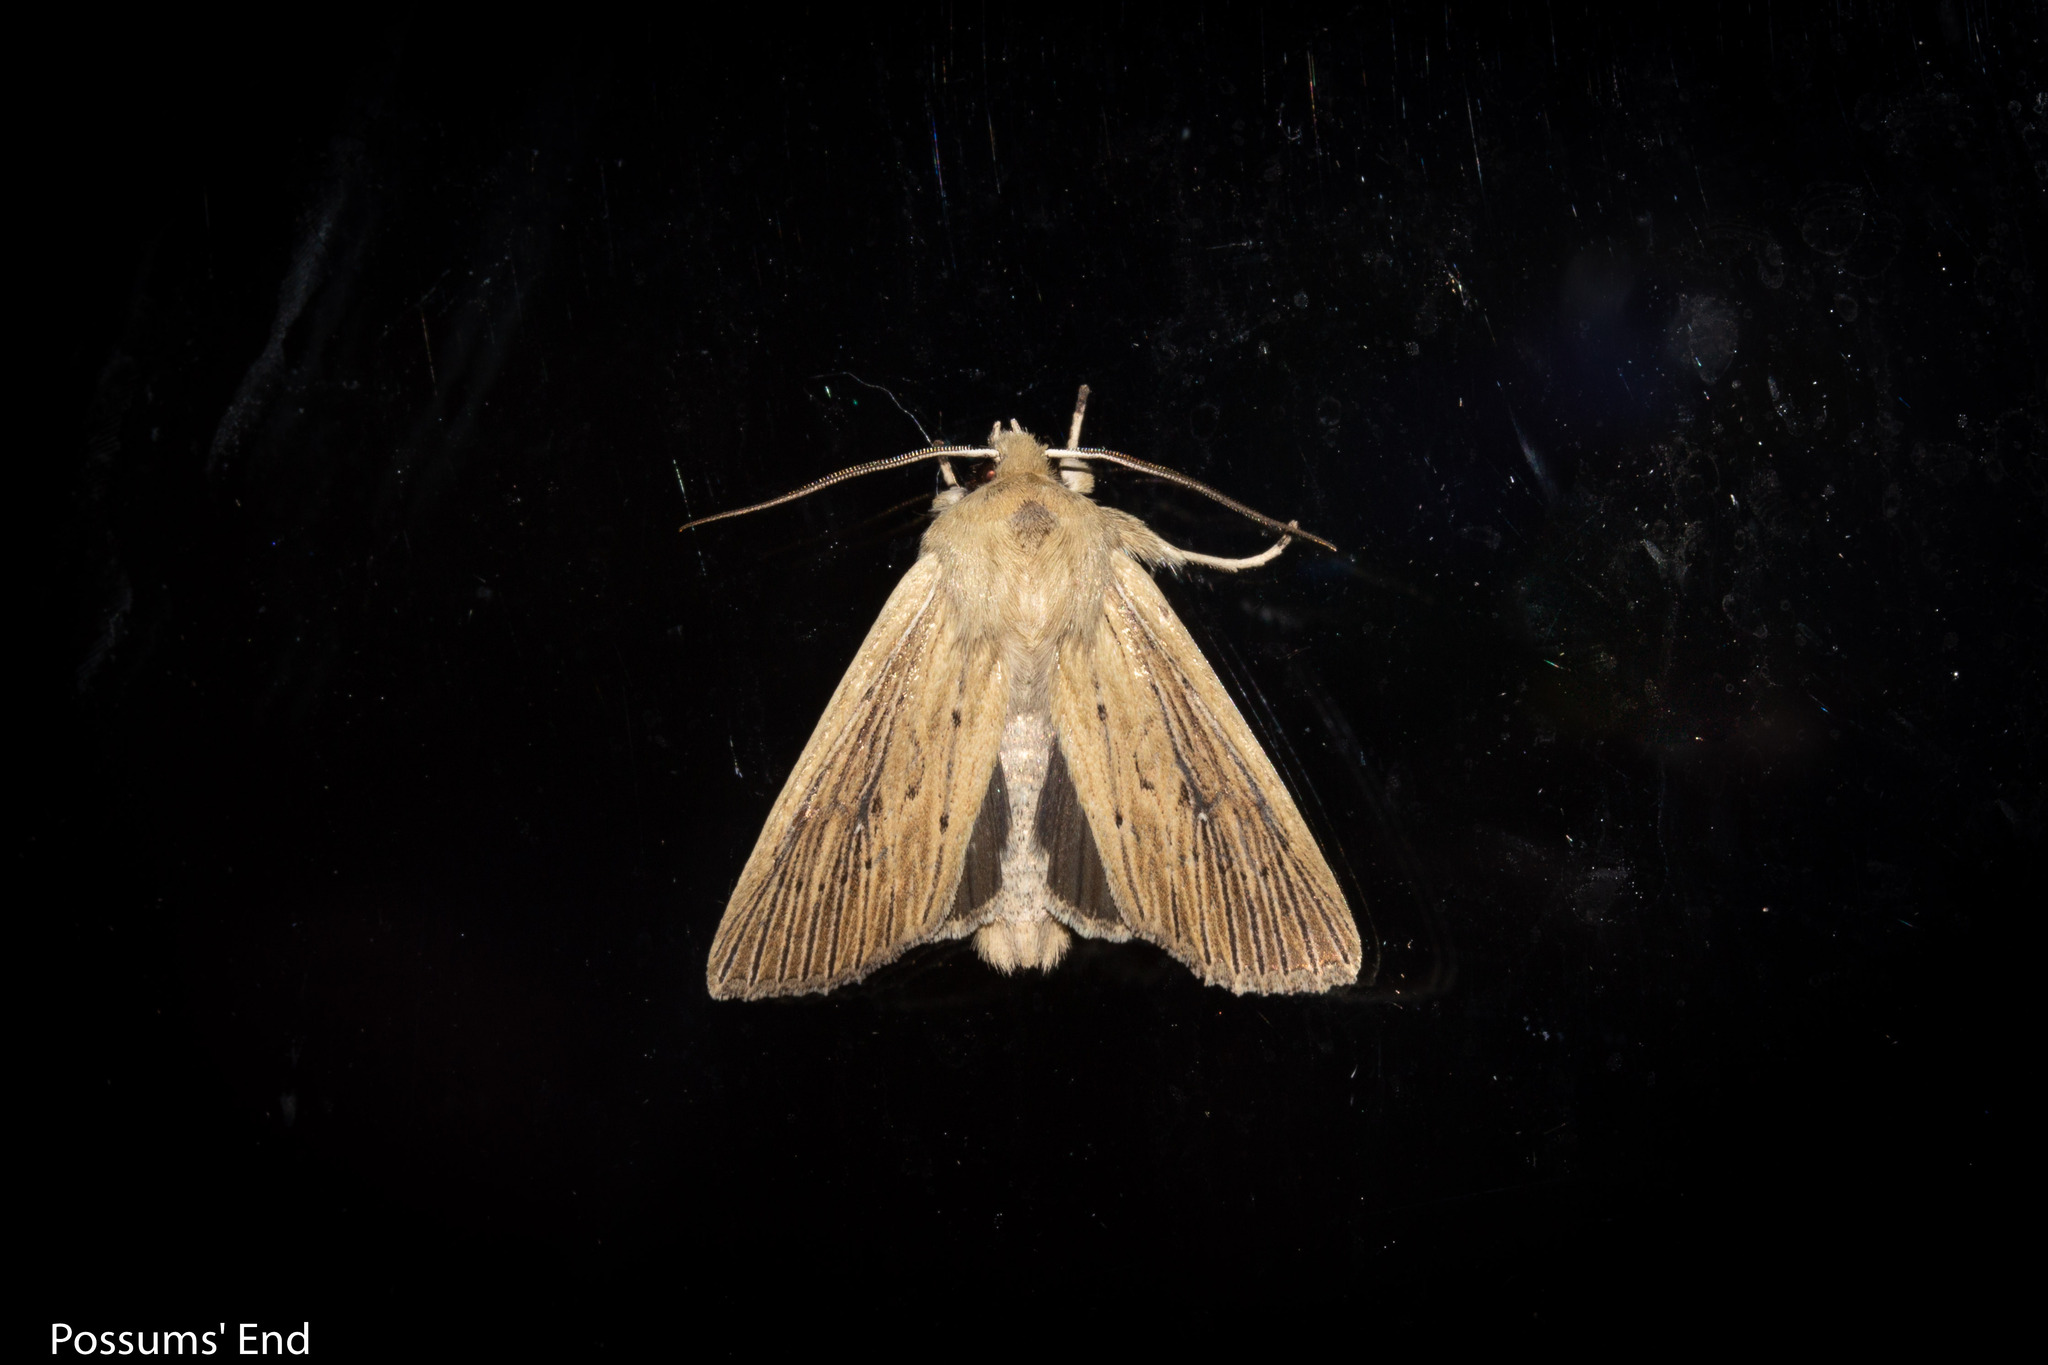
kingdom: Animalia
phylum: Arthropoda
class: Insecta
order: Lepidoptera
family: Noctuidae
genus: Ichneutica
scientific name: Ichneutica arotis
